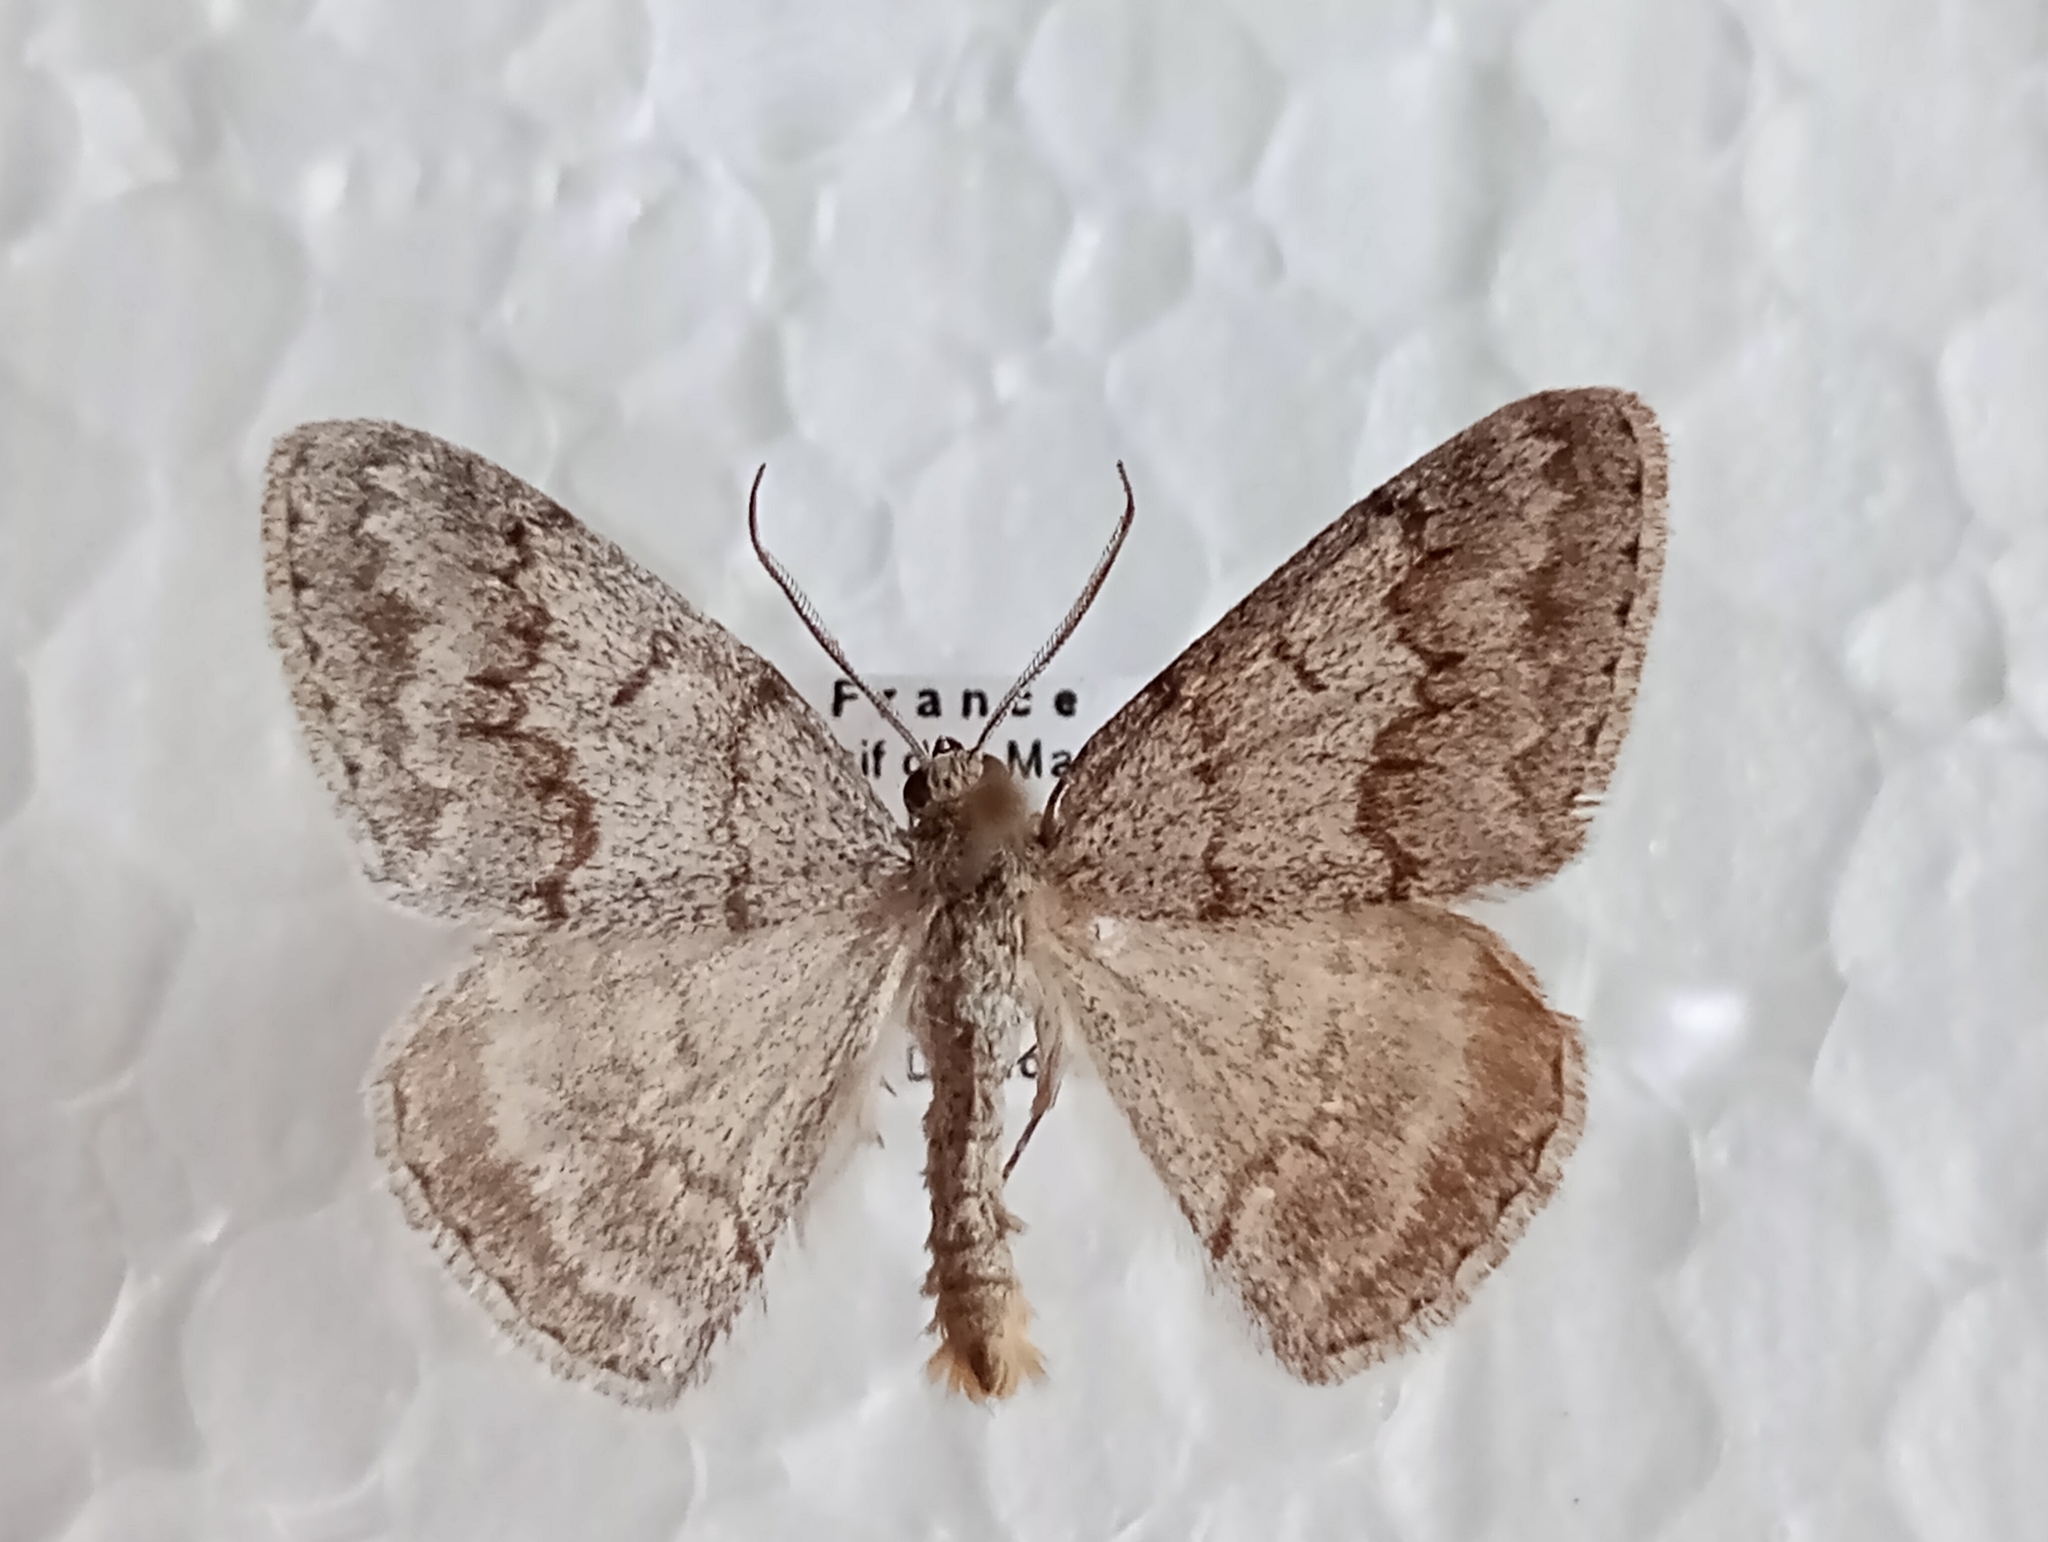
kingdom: Animalia
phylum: Arthropoda
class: Insecta
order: Lepidoptera
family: Geometridae
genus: Pseudoterpna
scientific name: Pseudoterpna coronillaria
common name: Jersey emerald
